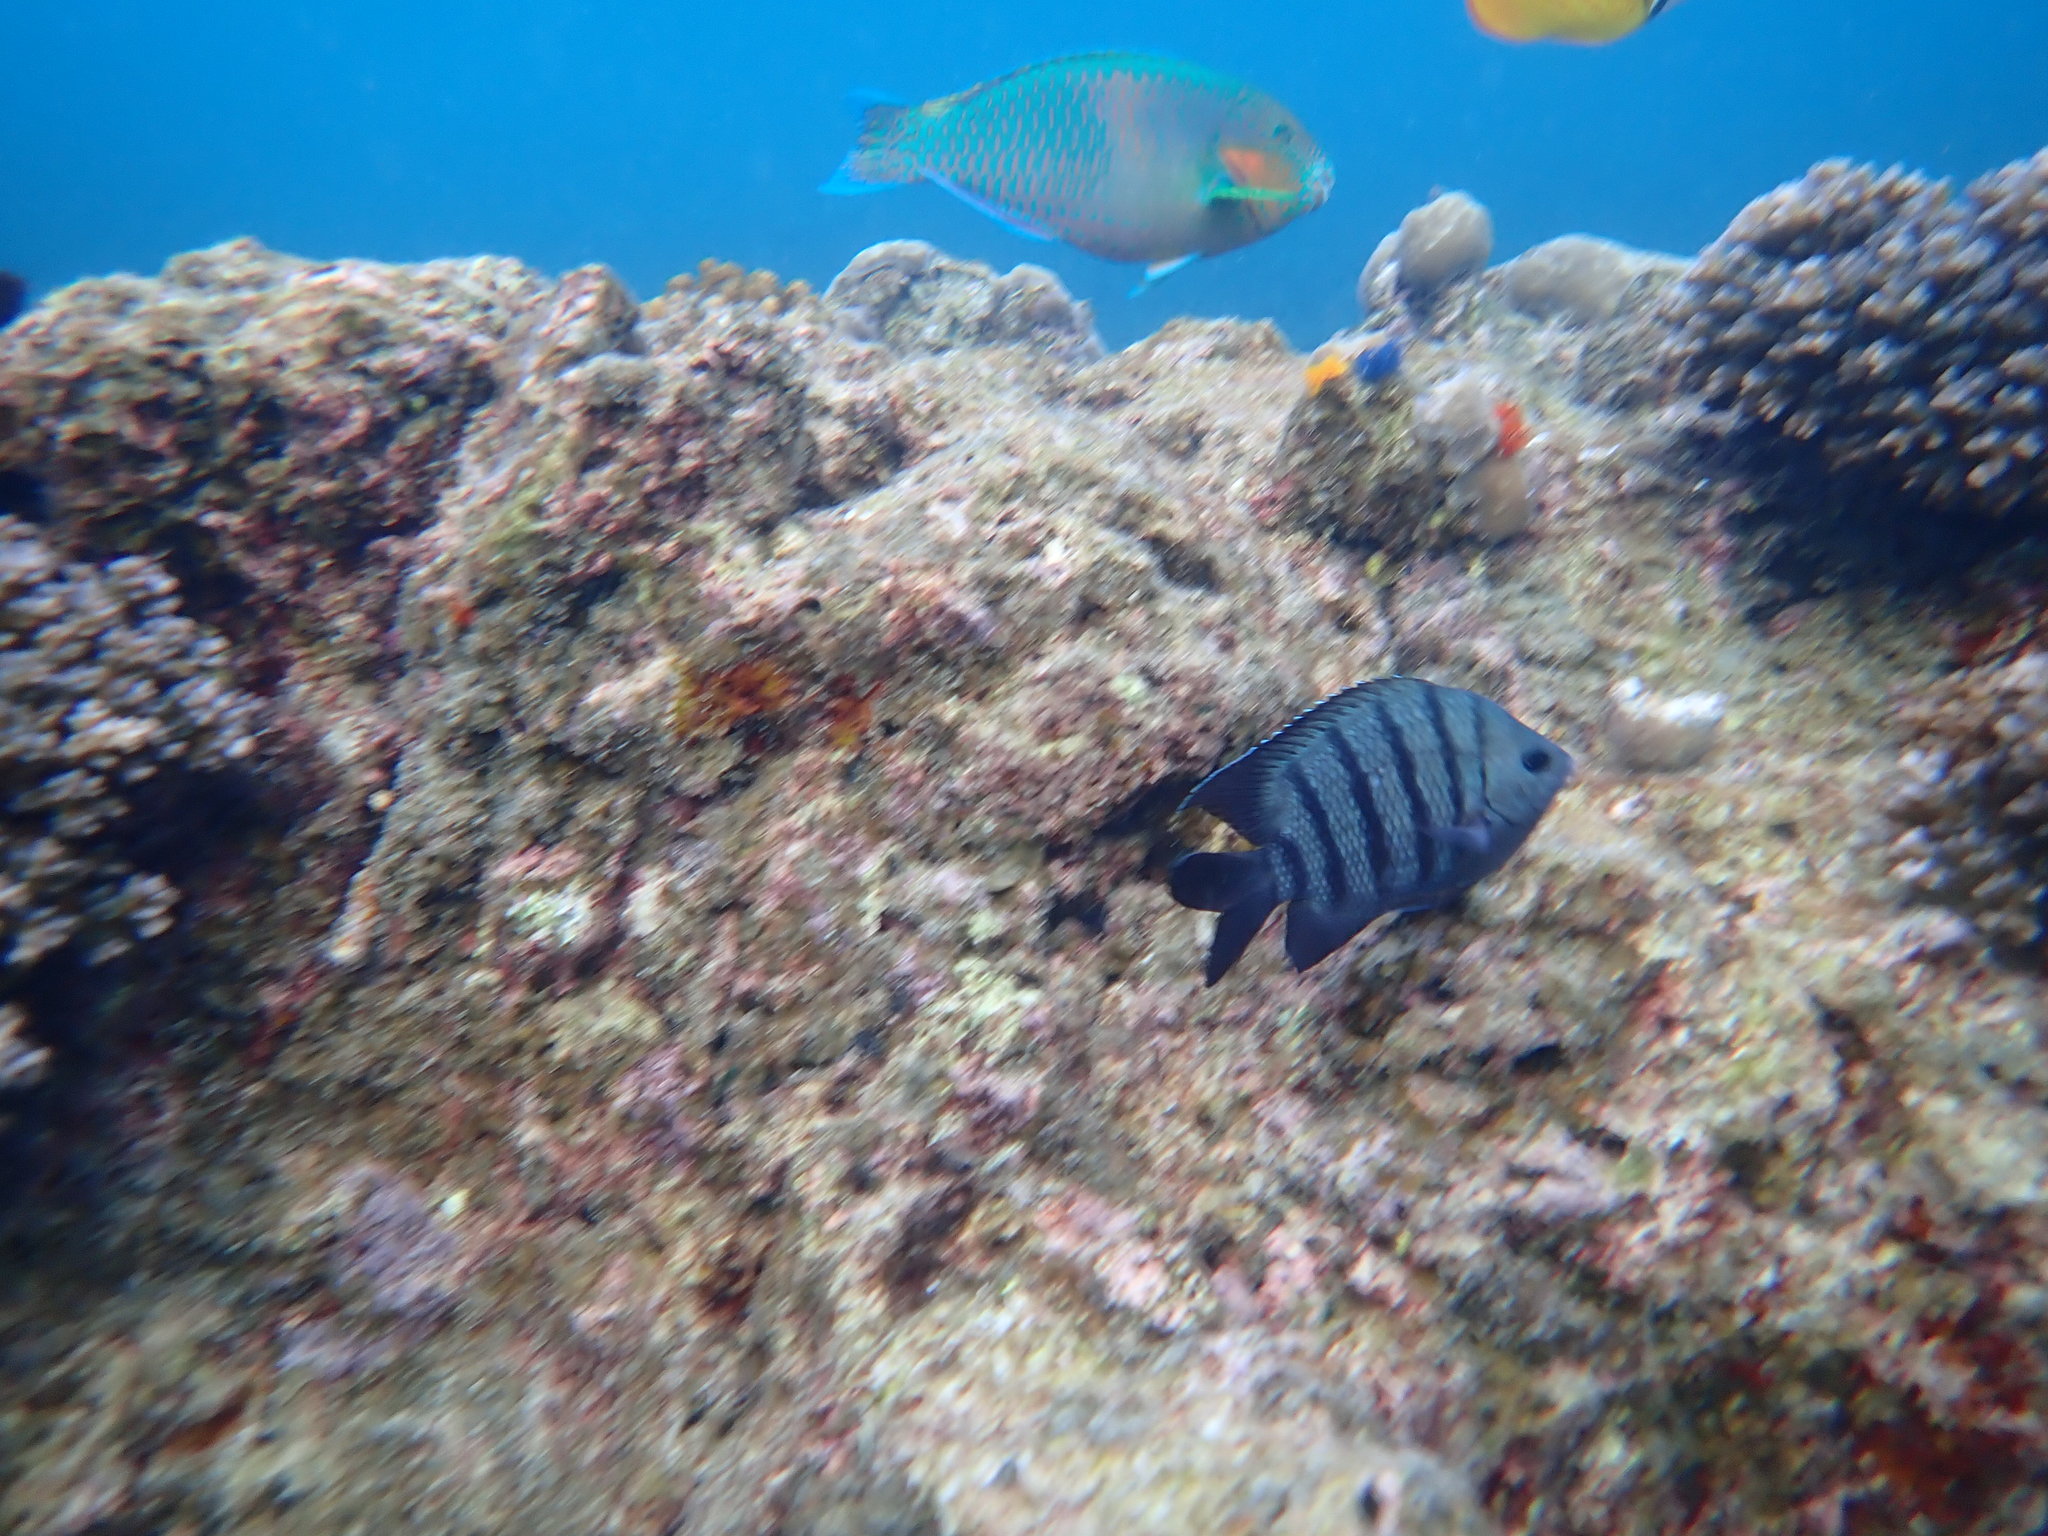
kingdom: Animalia
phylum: Chordata
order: Perciformes
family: Pomacentridae
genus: Abudefduf
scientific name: Abudefduf bengalensis
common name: Bengal sergeant
